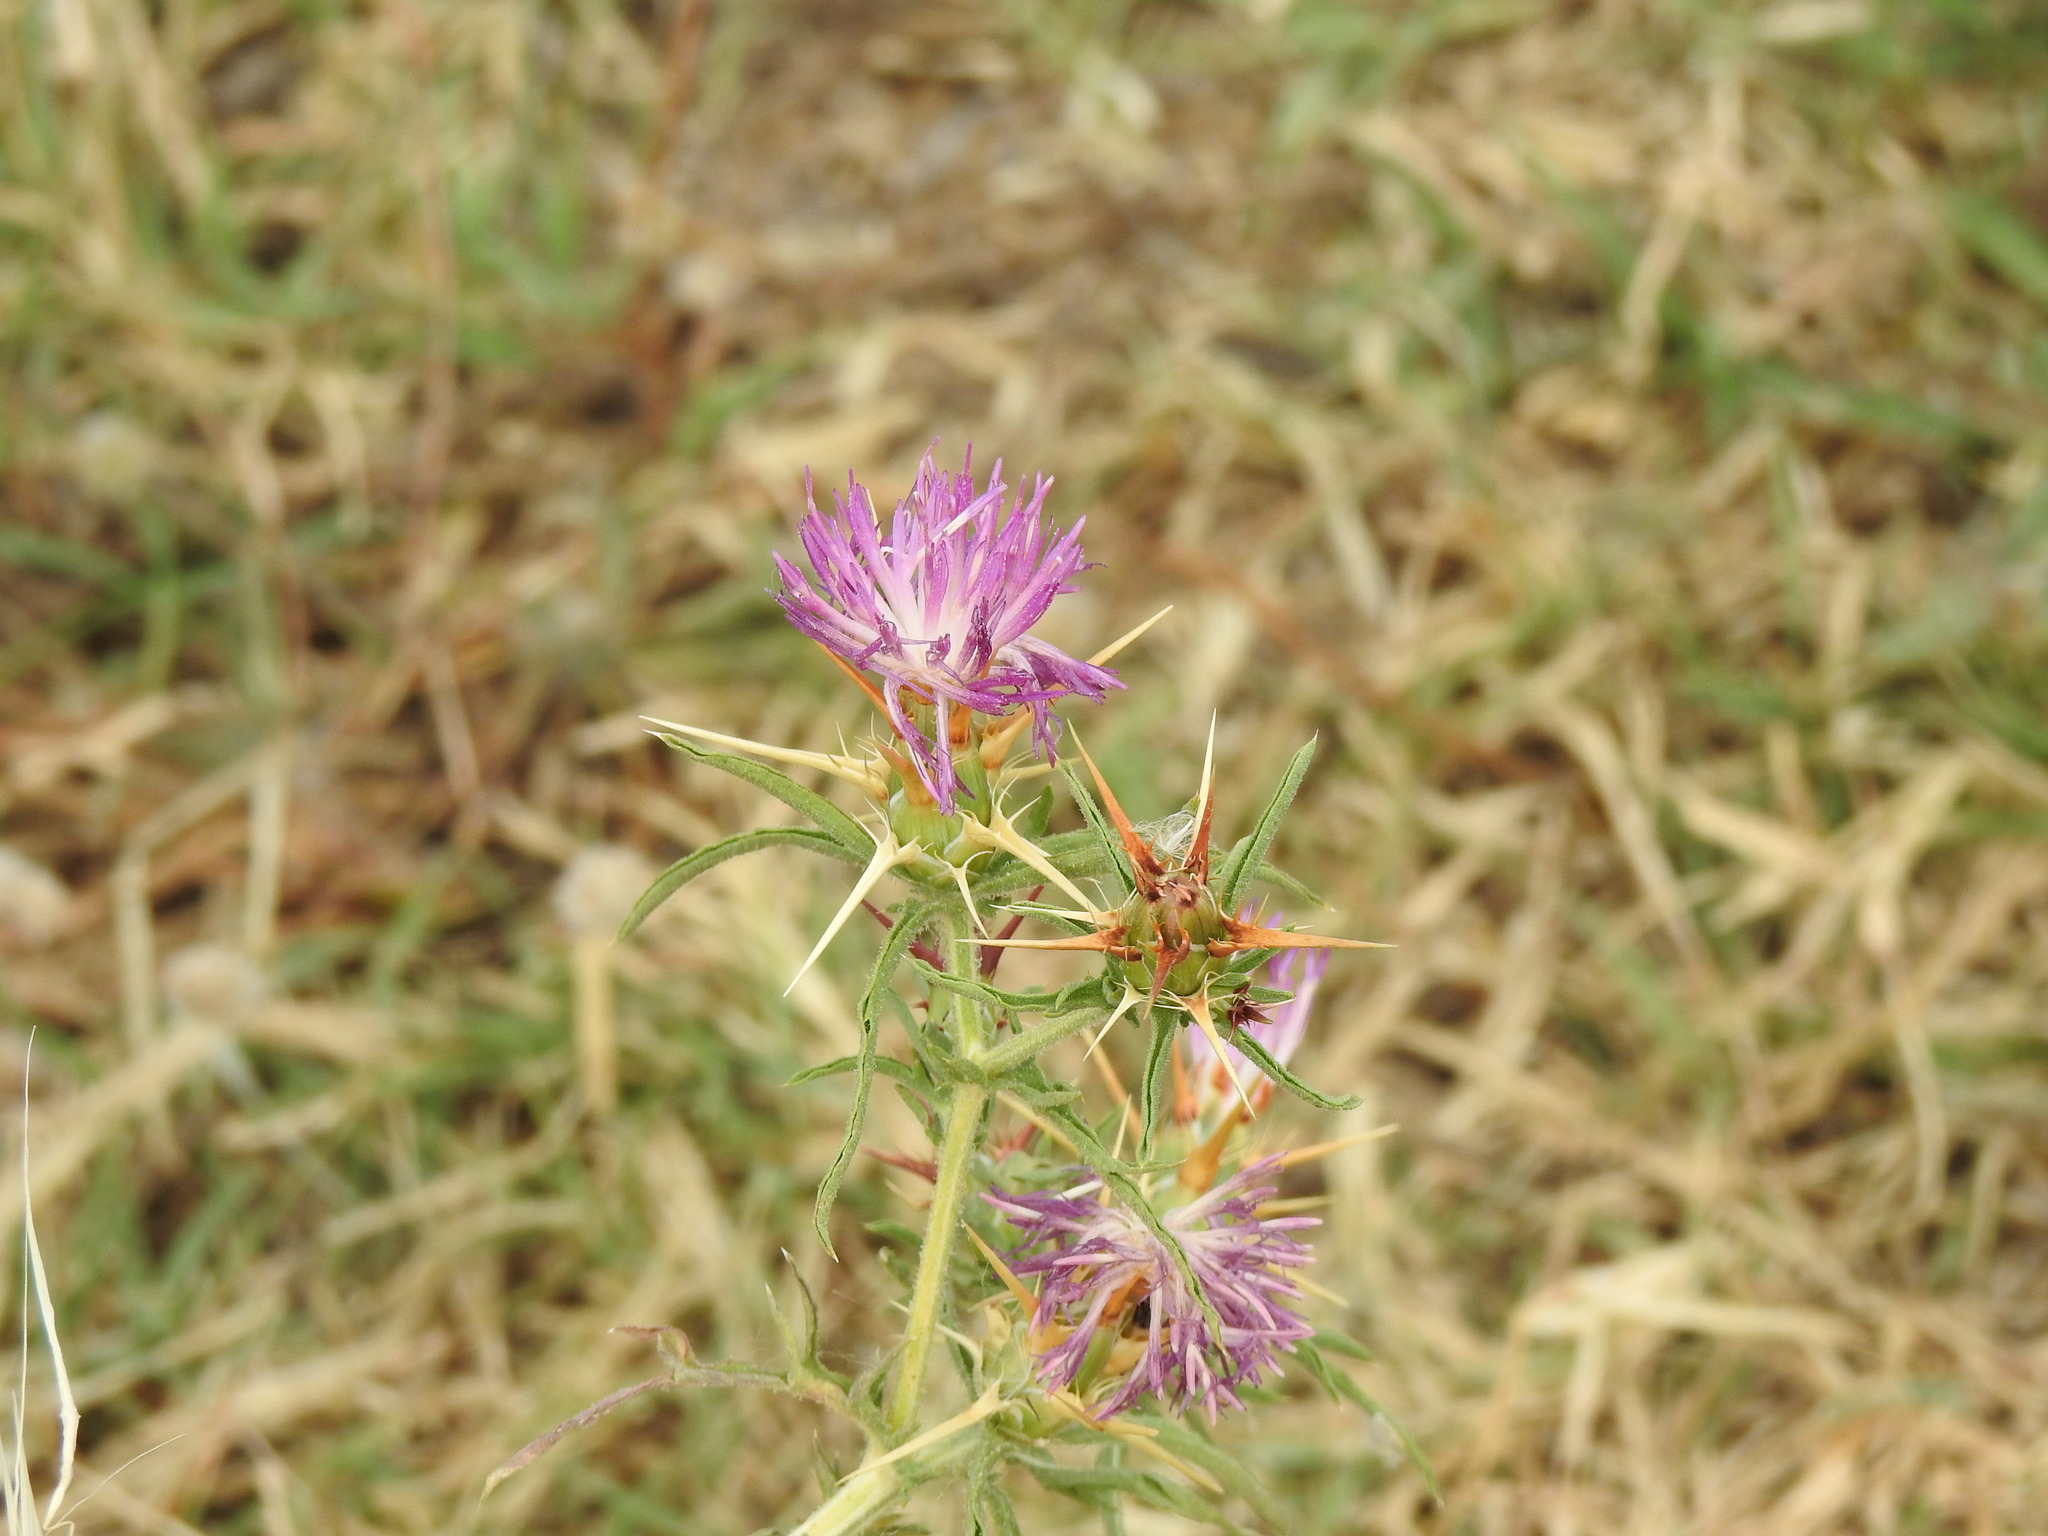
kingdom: Plantae
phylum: Tracheophyta
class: Magnoliopsida
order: Asterales
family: Asteraceae
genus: Centaurea
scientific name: Centaurea calcitrapa
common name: Red star-thistle
